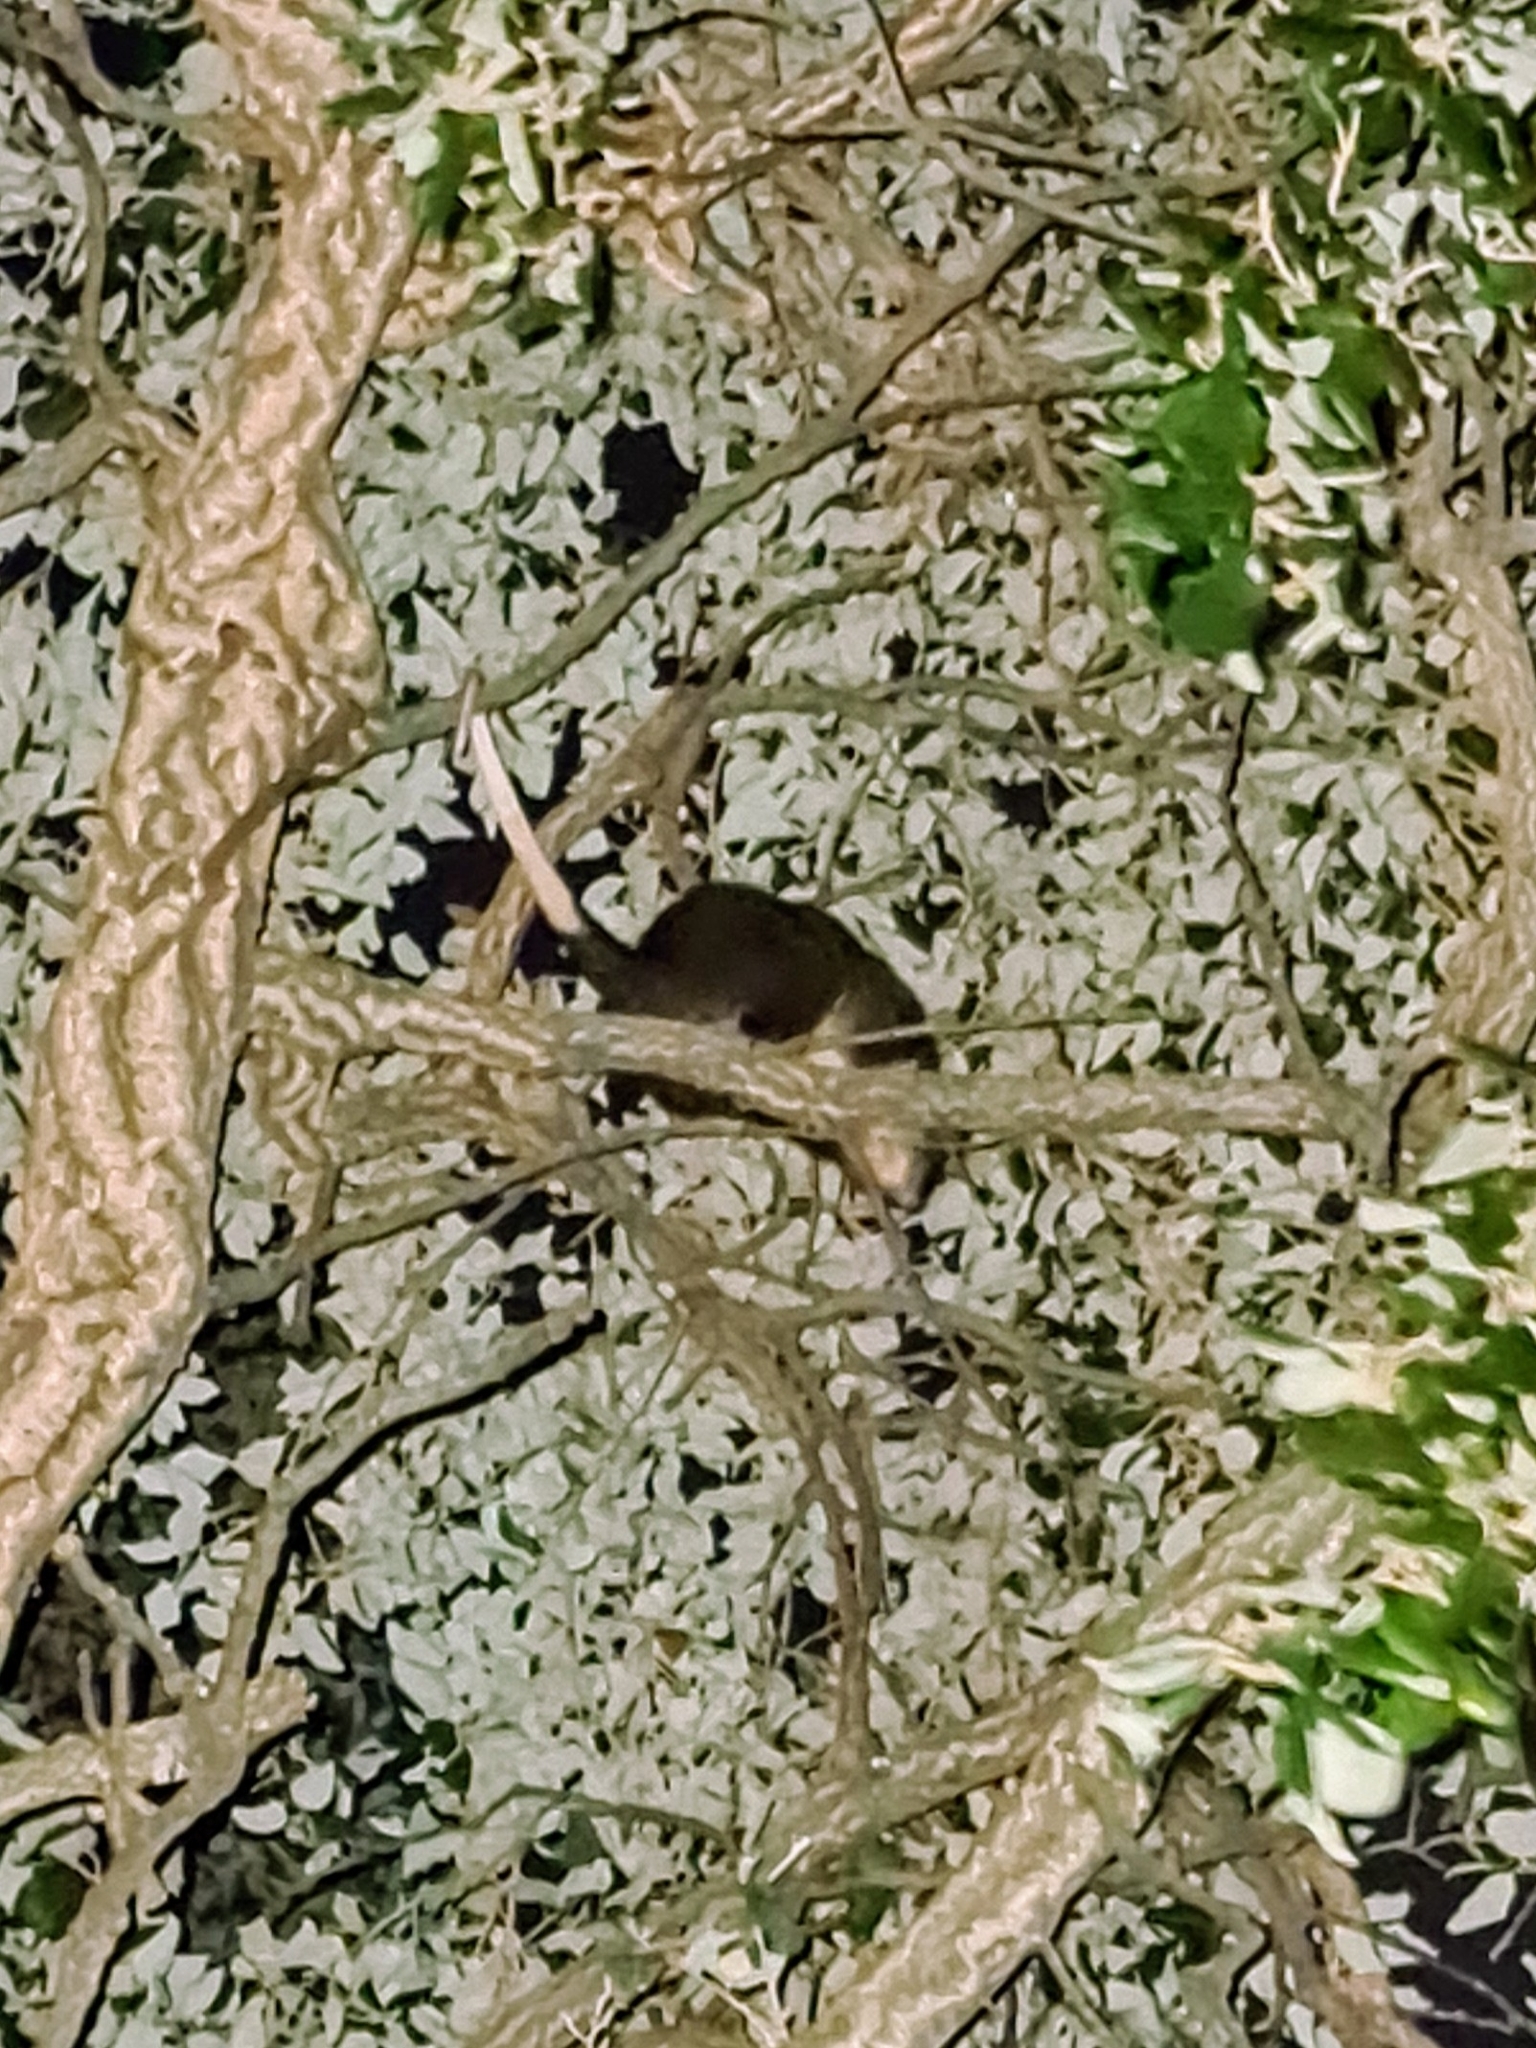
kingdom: Animalia
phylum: Chordata
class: Mammalia
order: Diprotodontia
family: Pseudocheiridae
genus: Pseudocheirus
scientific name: Pseudocheirus peregrinus
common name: Common ringtail possum
